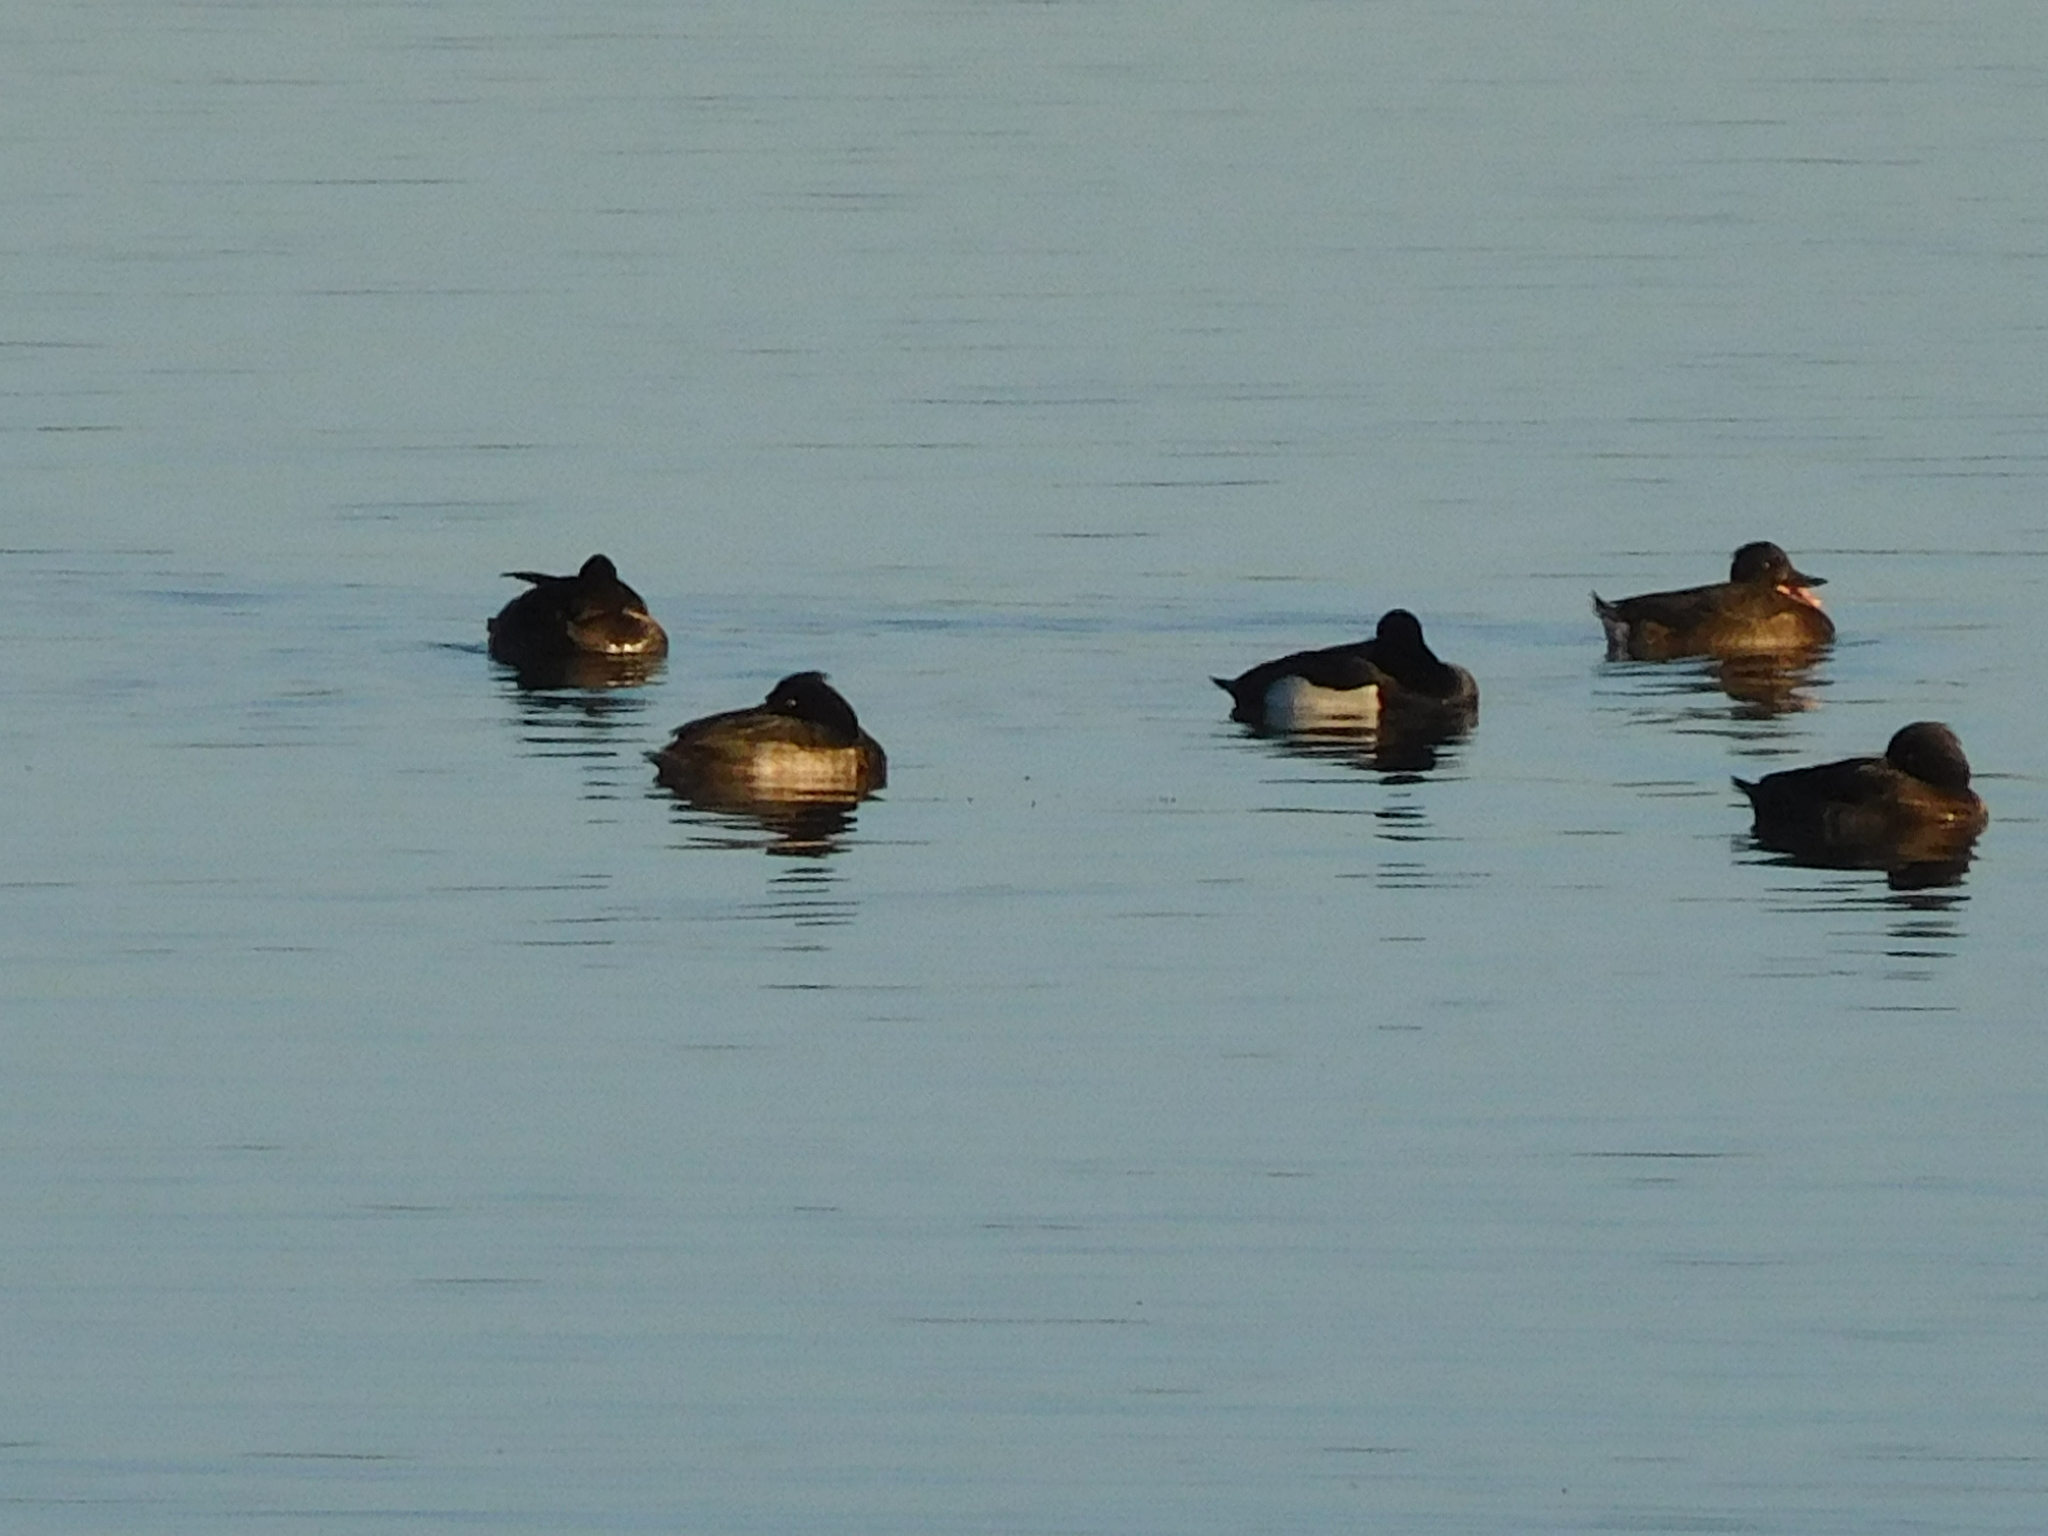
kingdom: Animalia
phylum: Chordata
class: Aves
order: Anseriformes
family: Anatidae
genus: Aythya
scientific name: Aythya fuligula
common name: Tufted duck
